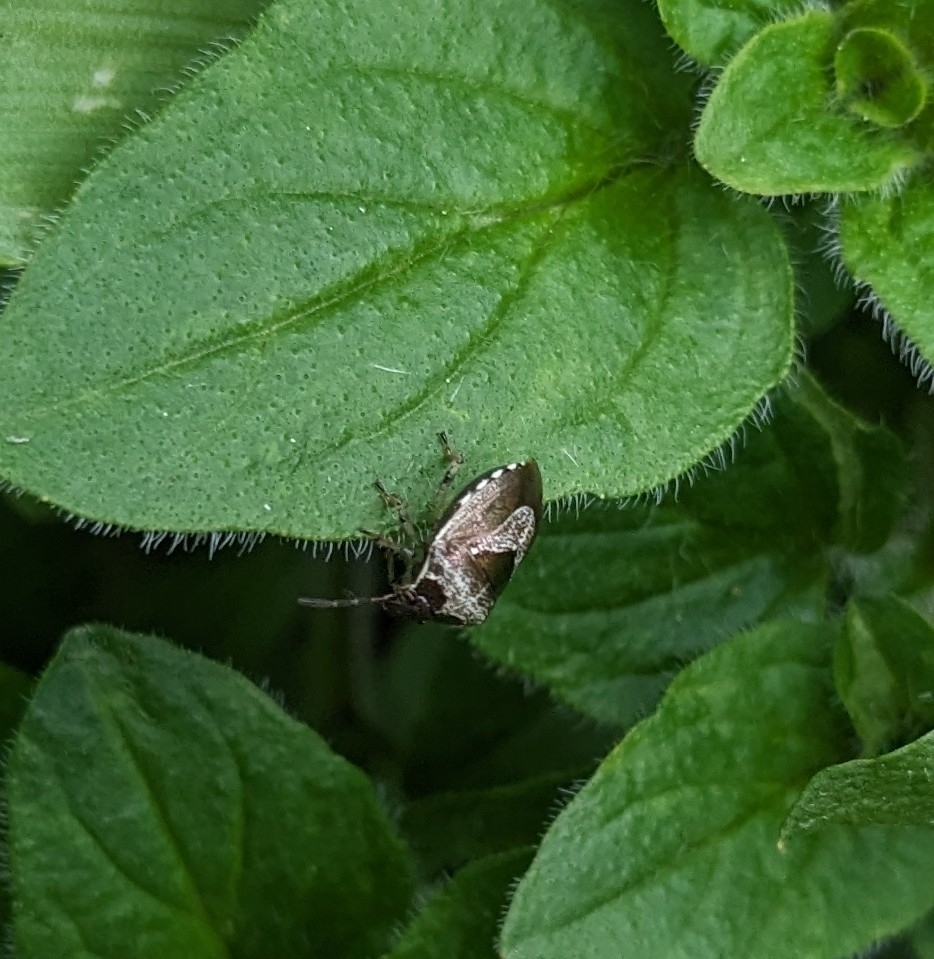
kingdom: Animalia
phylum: Arthropoda
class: Insecta
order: Hemiptera
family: Pentatomidae
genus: Eysarcoris
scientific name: Eysarcoris venustissimus
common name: Woundwort shieldbug
